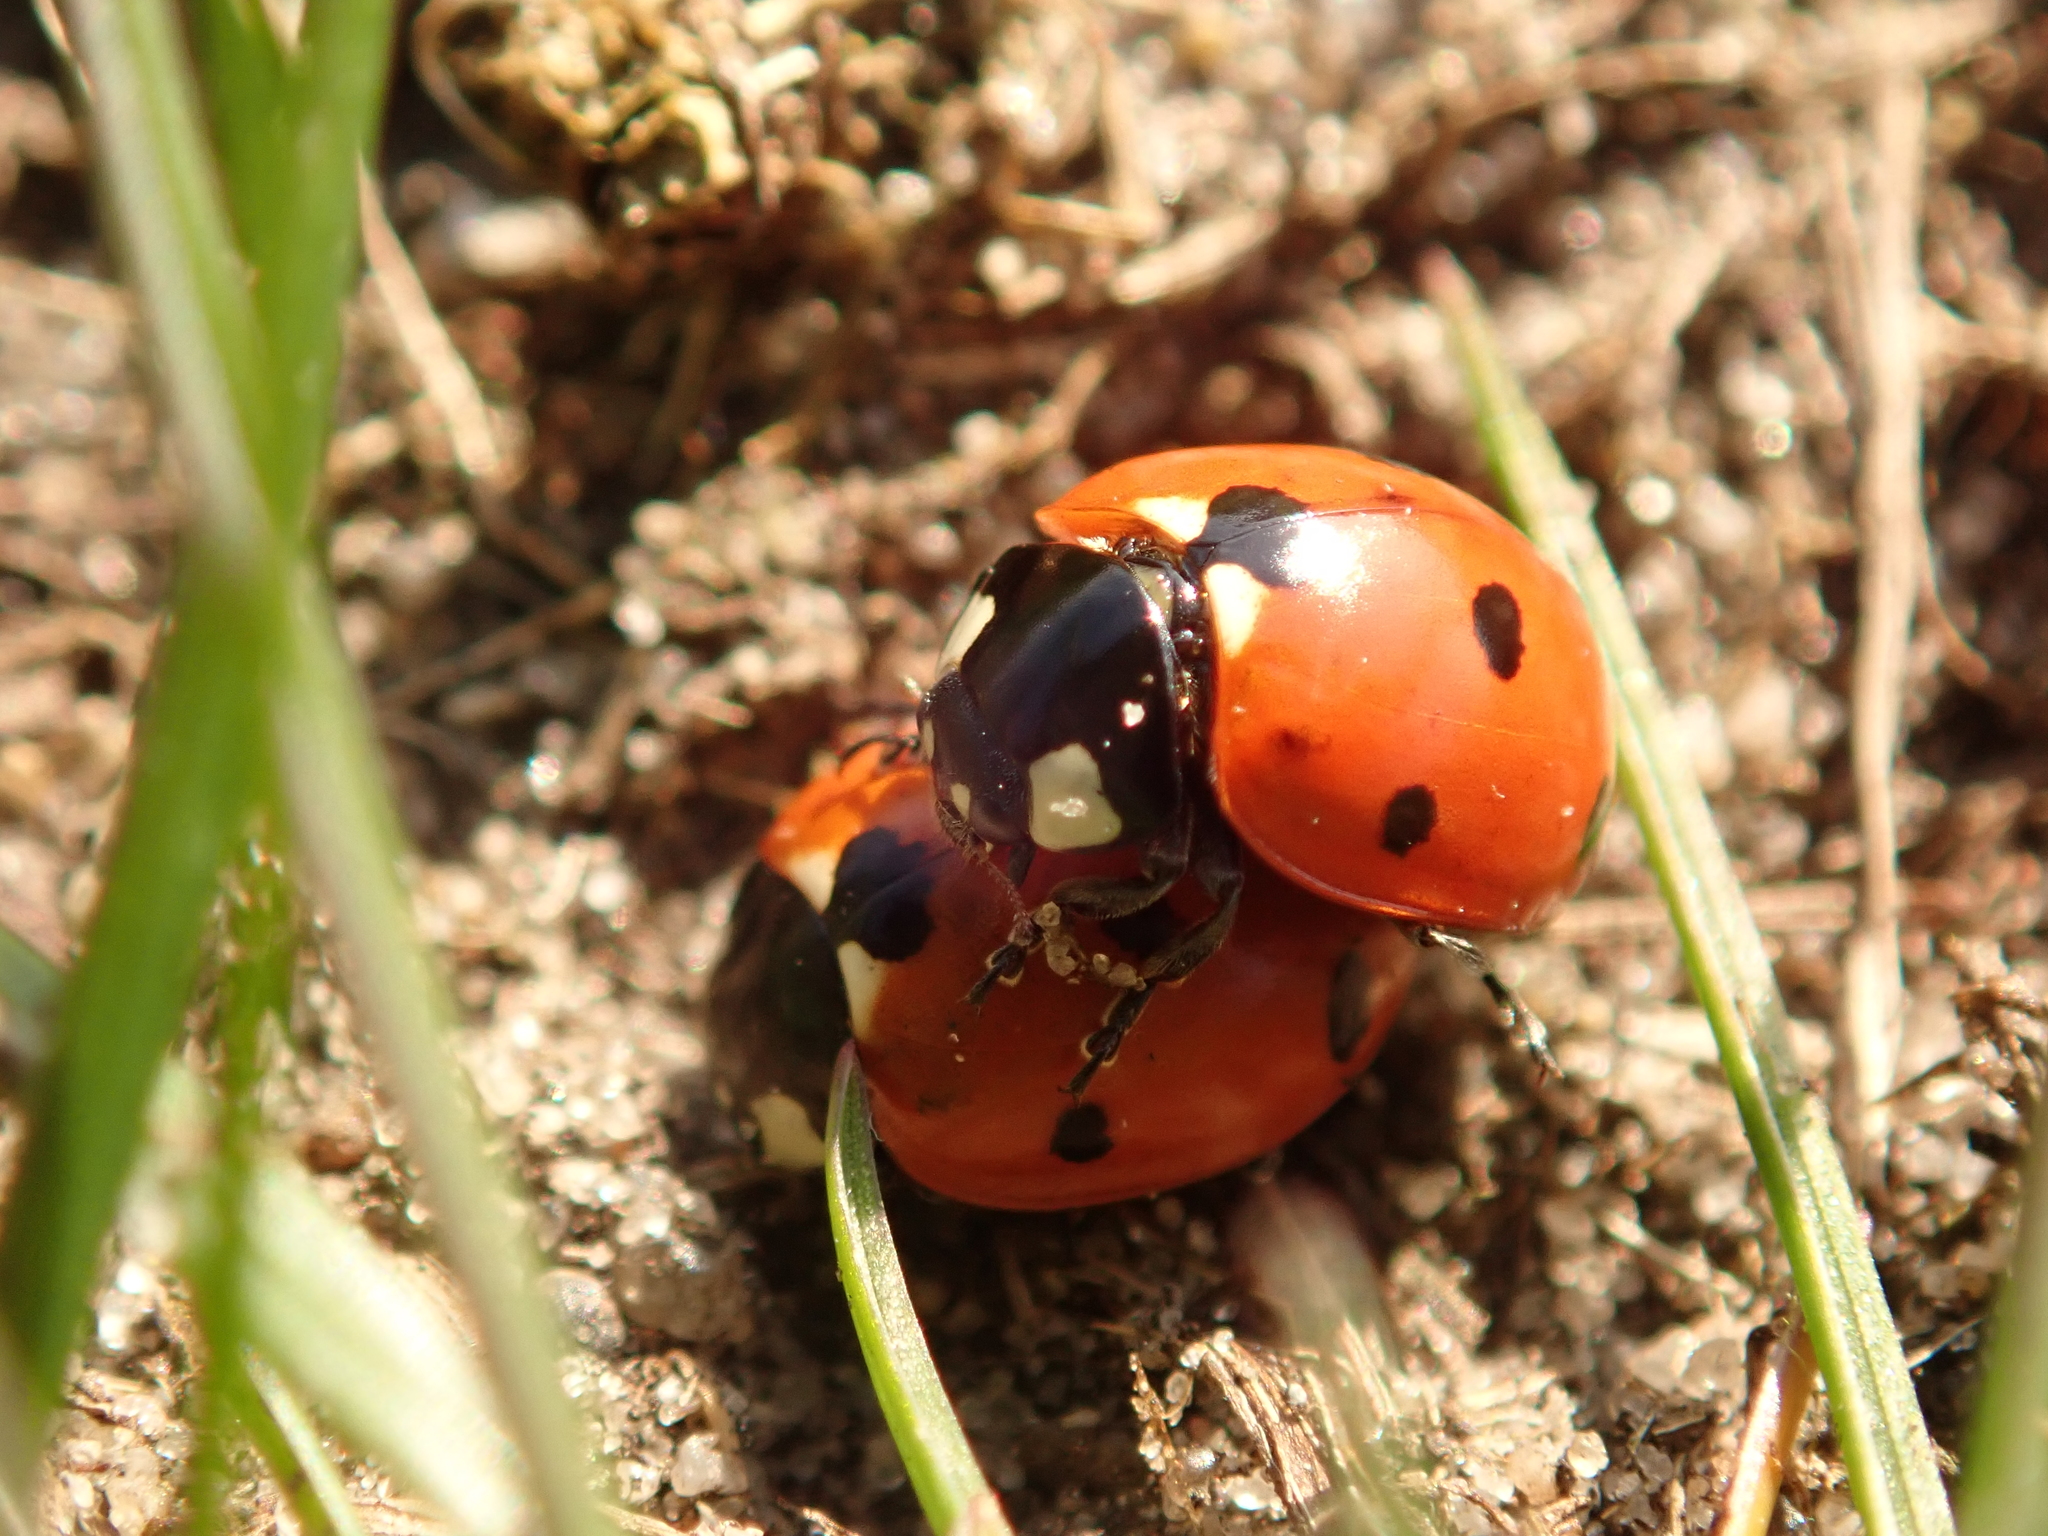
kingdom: Animalia
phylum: Arthropoda
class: Insecta
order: Coleoptera
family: Coccinellidae
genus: Coccinella
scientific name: Coccinella septempunctata
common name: Sevenspotted lady beetle
